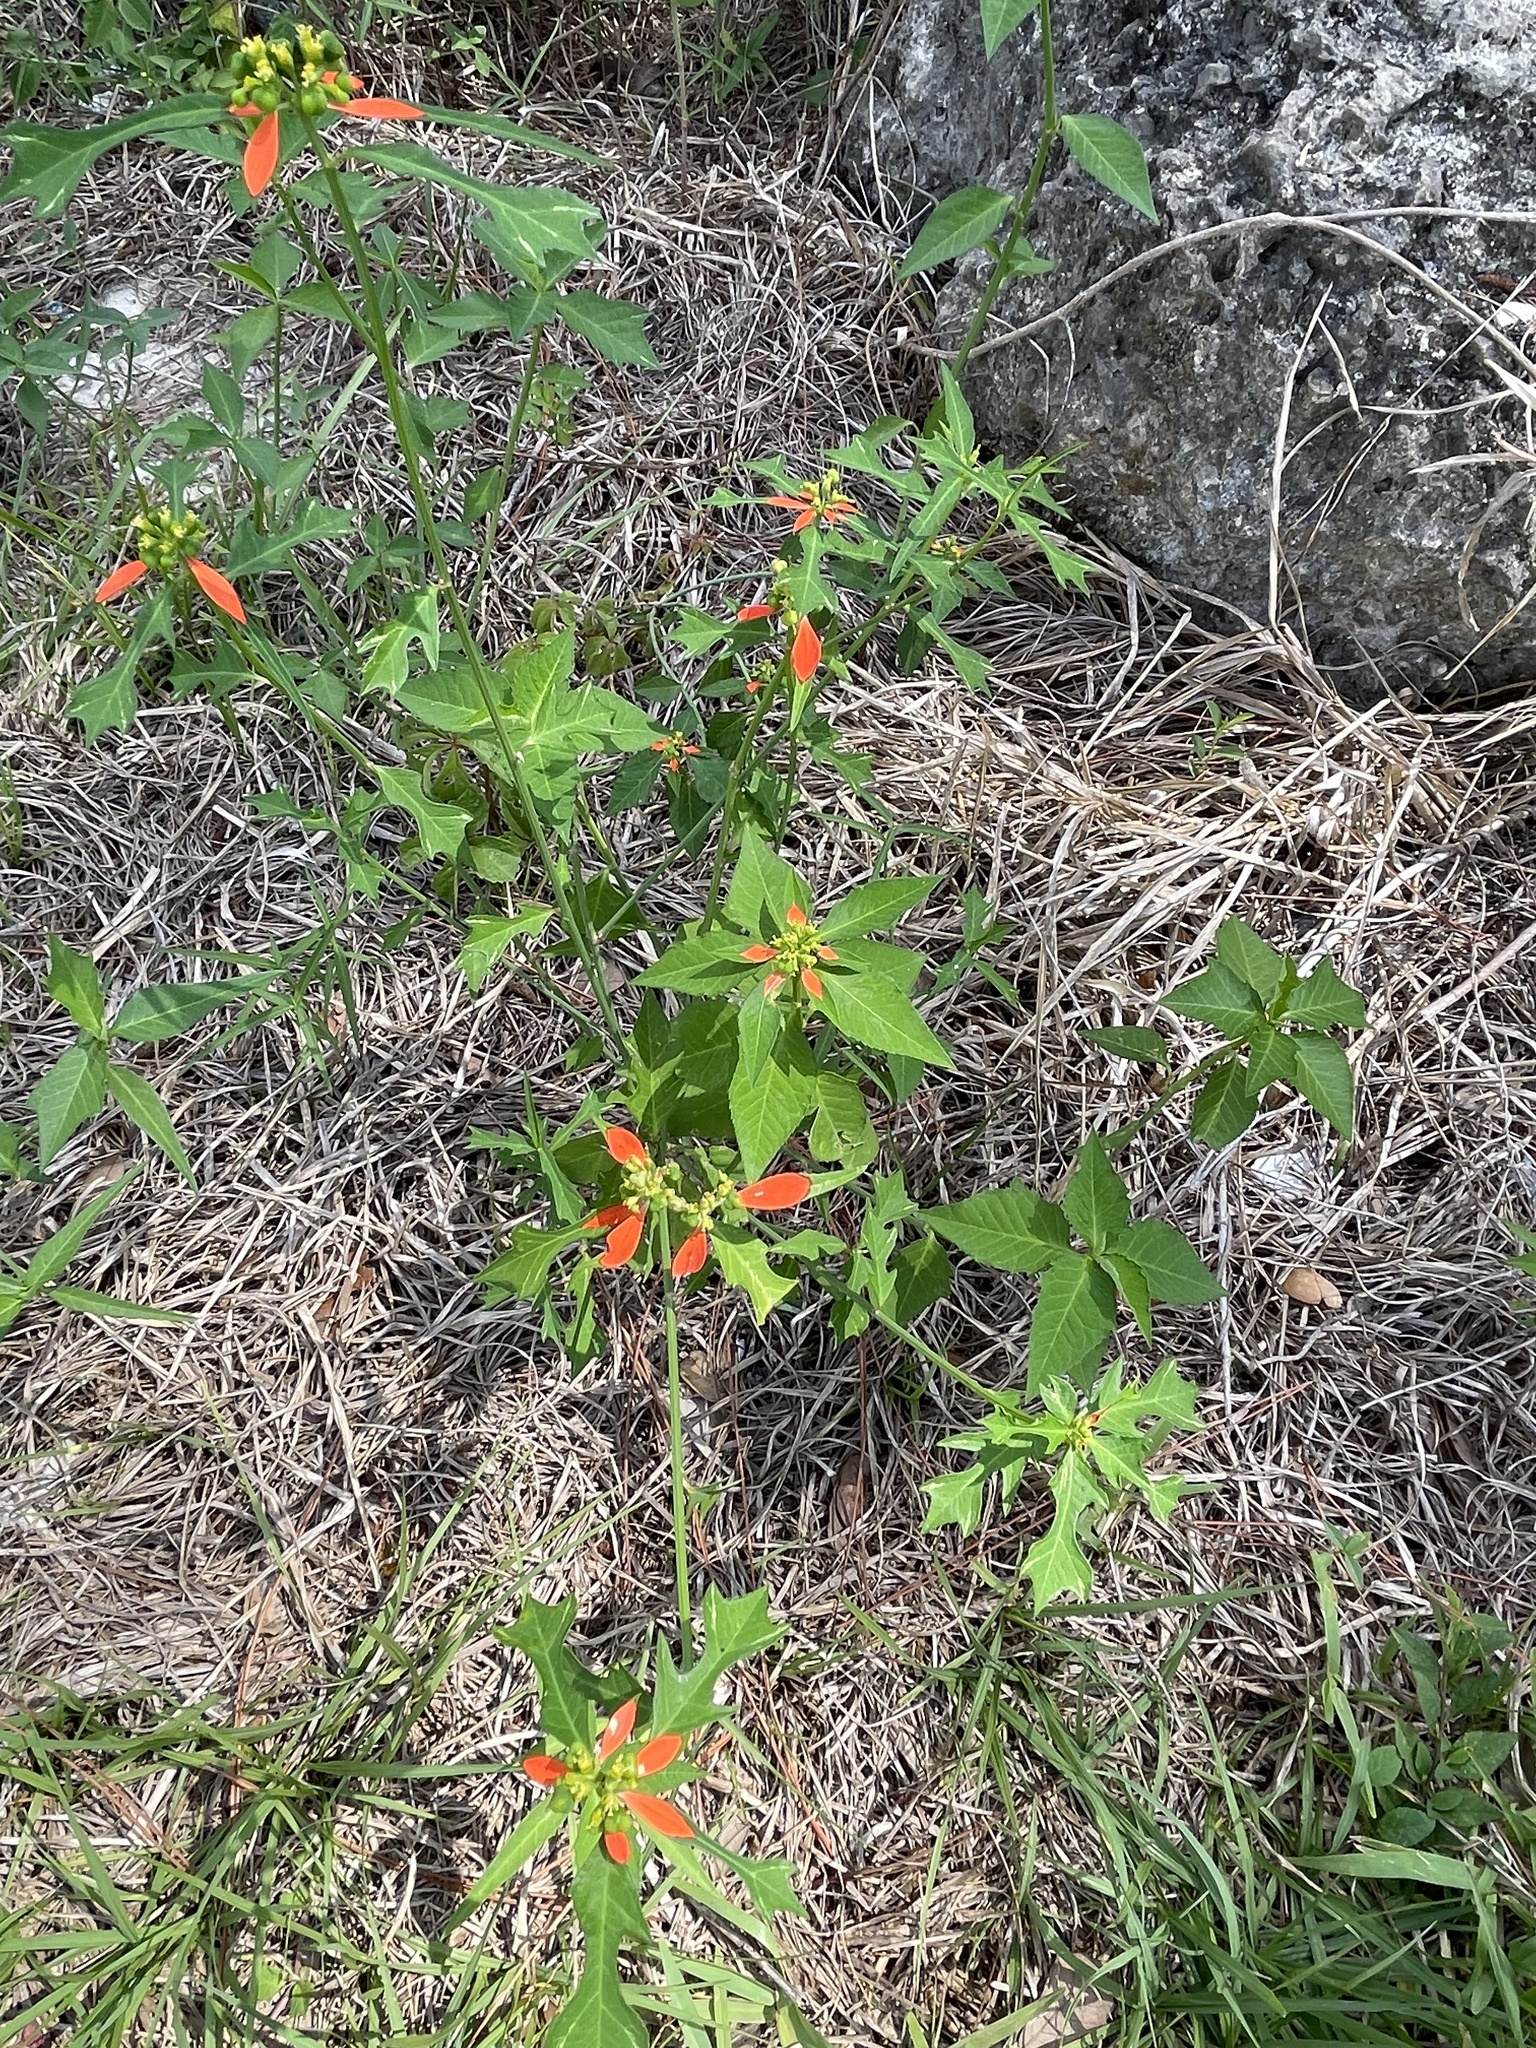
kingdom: Plantae
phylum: Tracheophyta
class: Magnoliopsida
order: Malpighiales
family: Euphorbiaceae
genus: Euphorbia
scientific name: Euphorbia heterophylla
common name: Mexican fireplant
